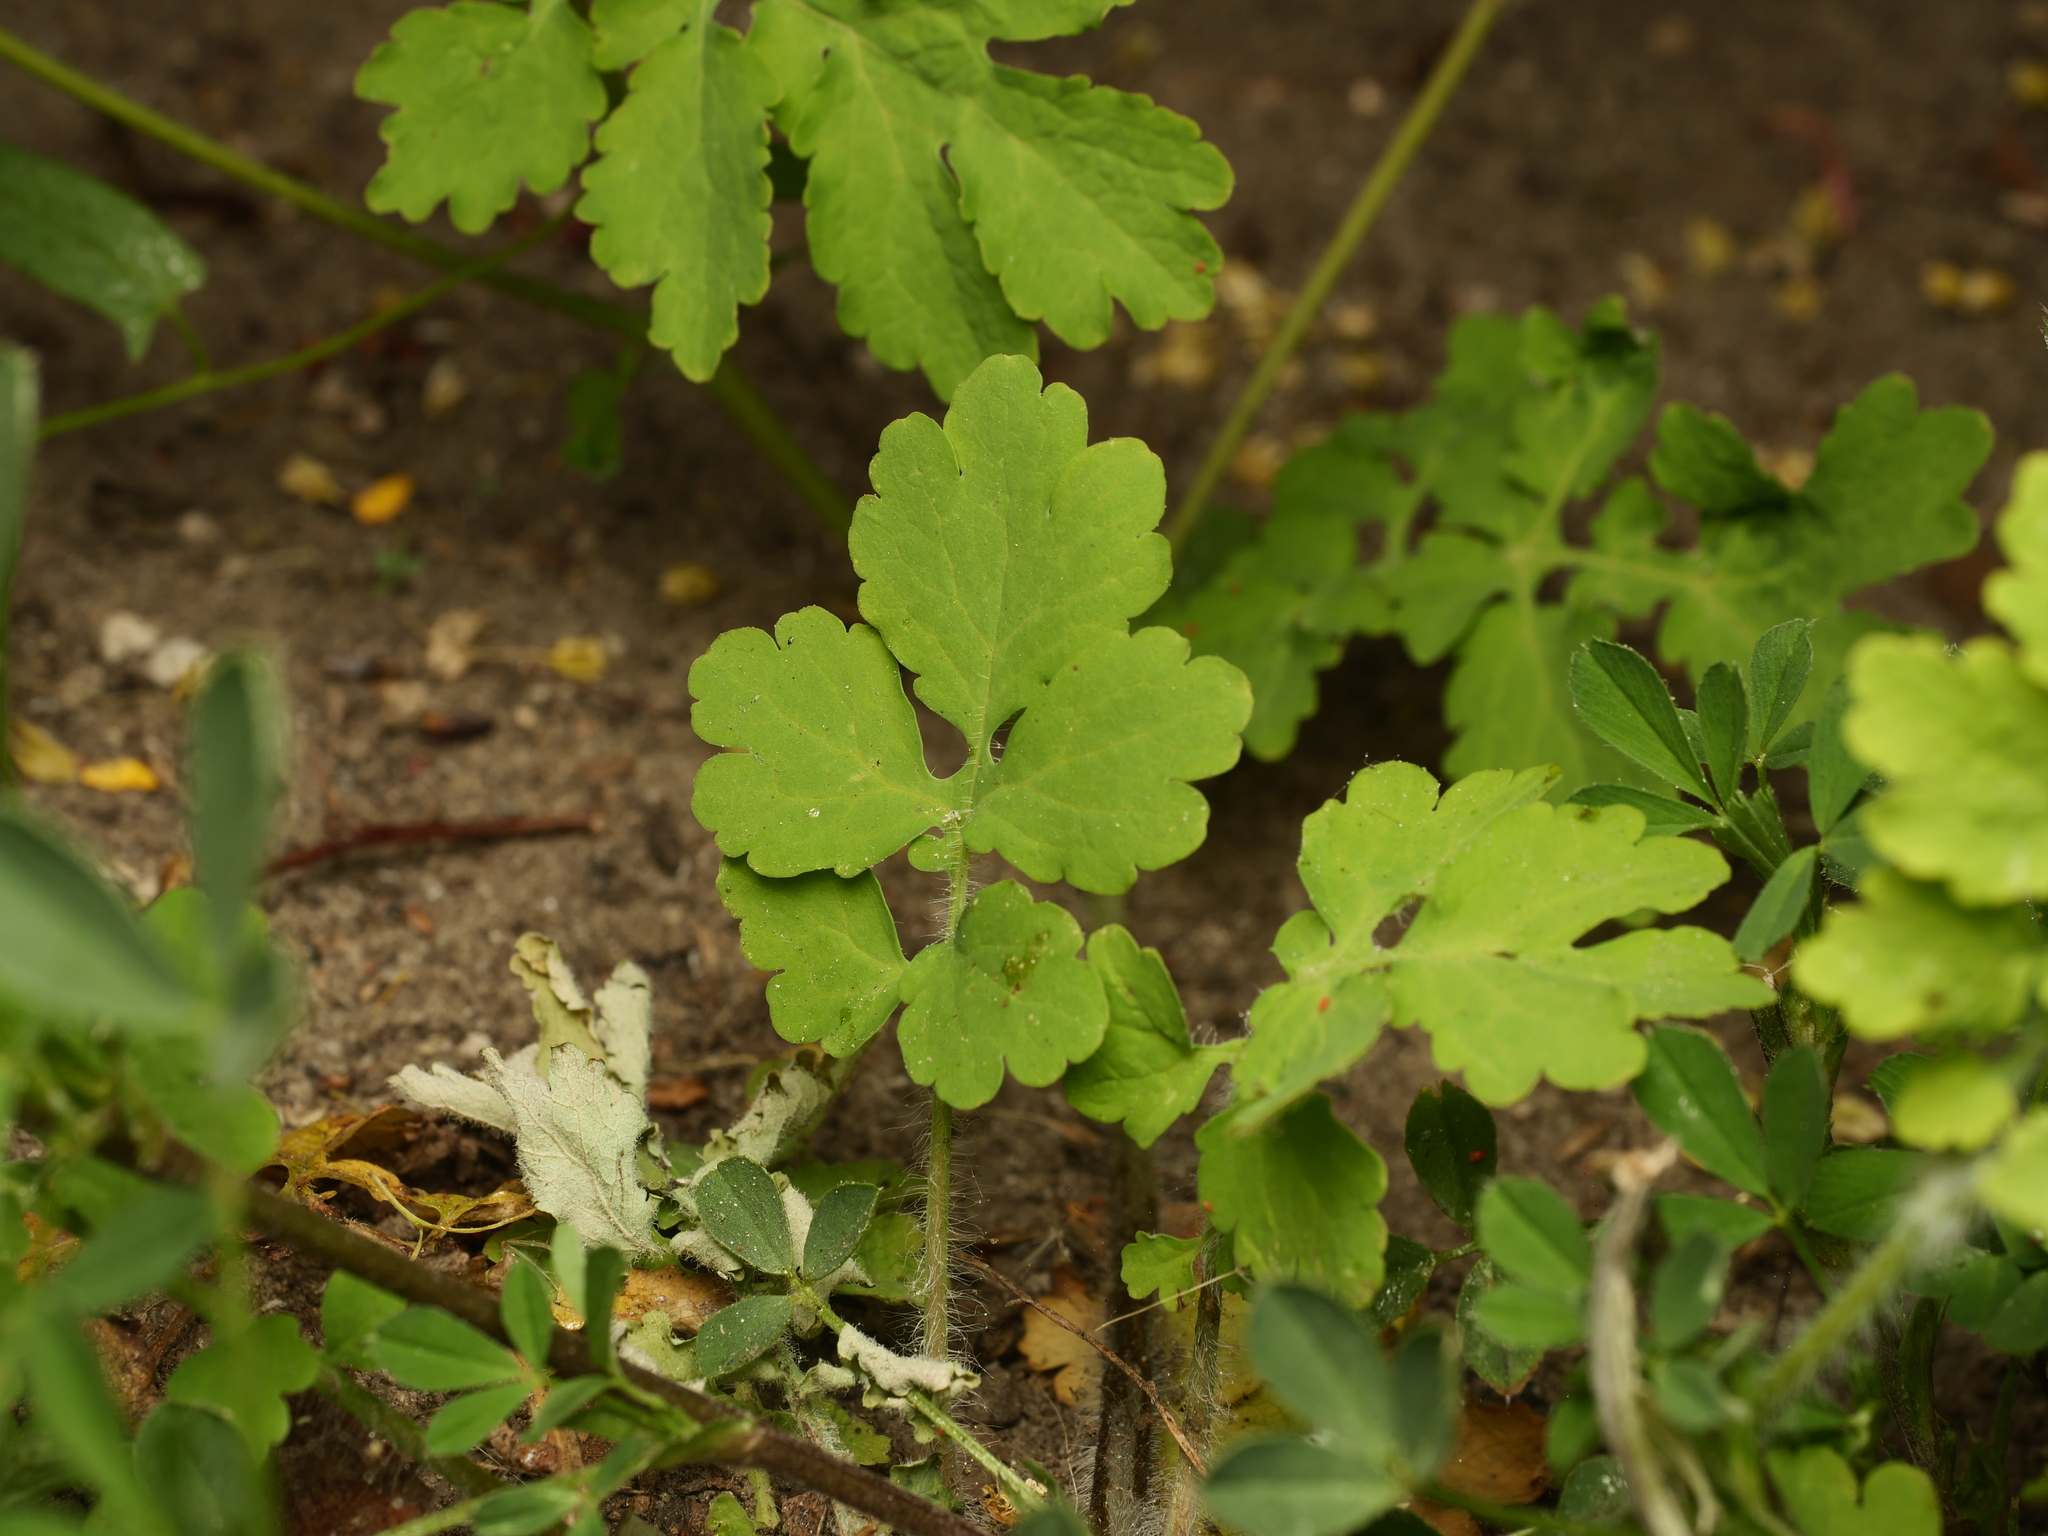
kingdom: Plantae
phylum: Tracheophyta
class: Magnoliopsida
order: Ranunculales
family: Papaveraceae
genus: Chelidonium
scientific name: Chelidonium majus
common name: Greater celandine
